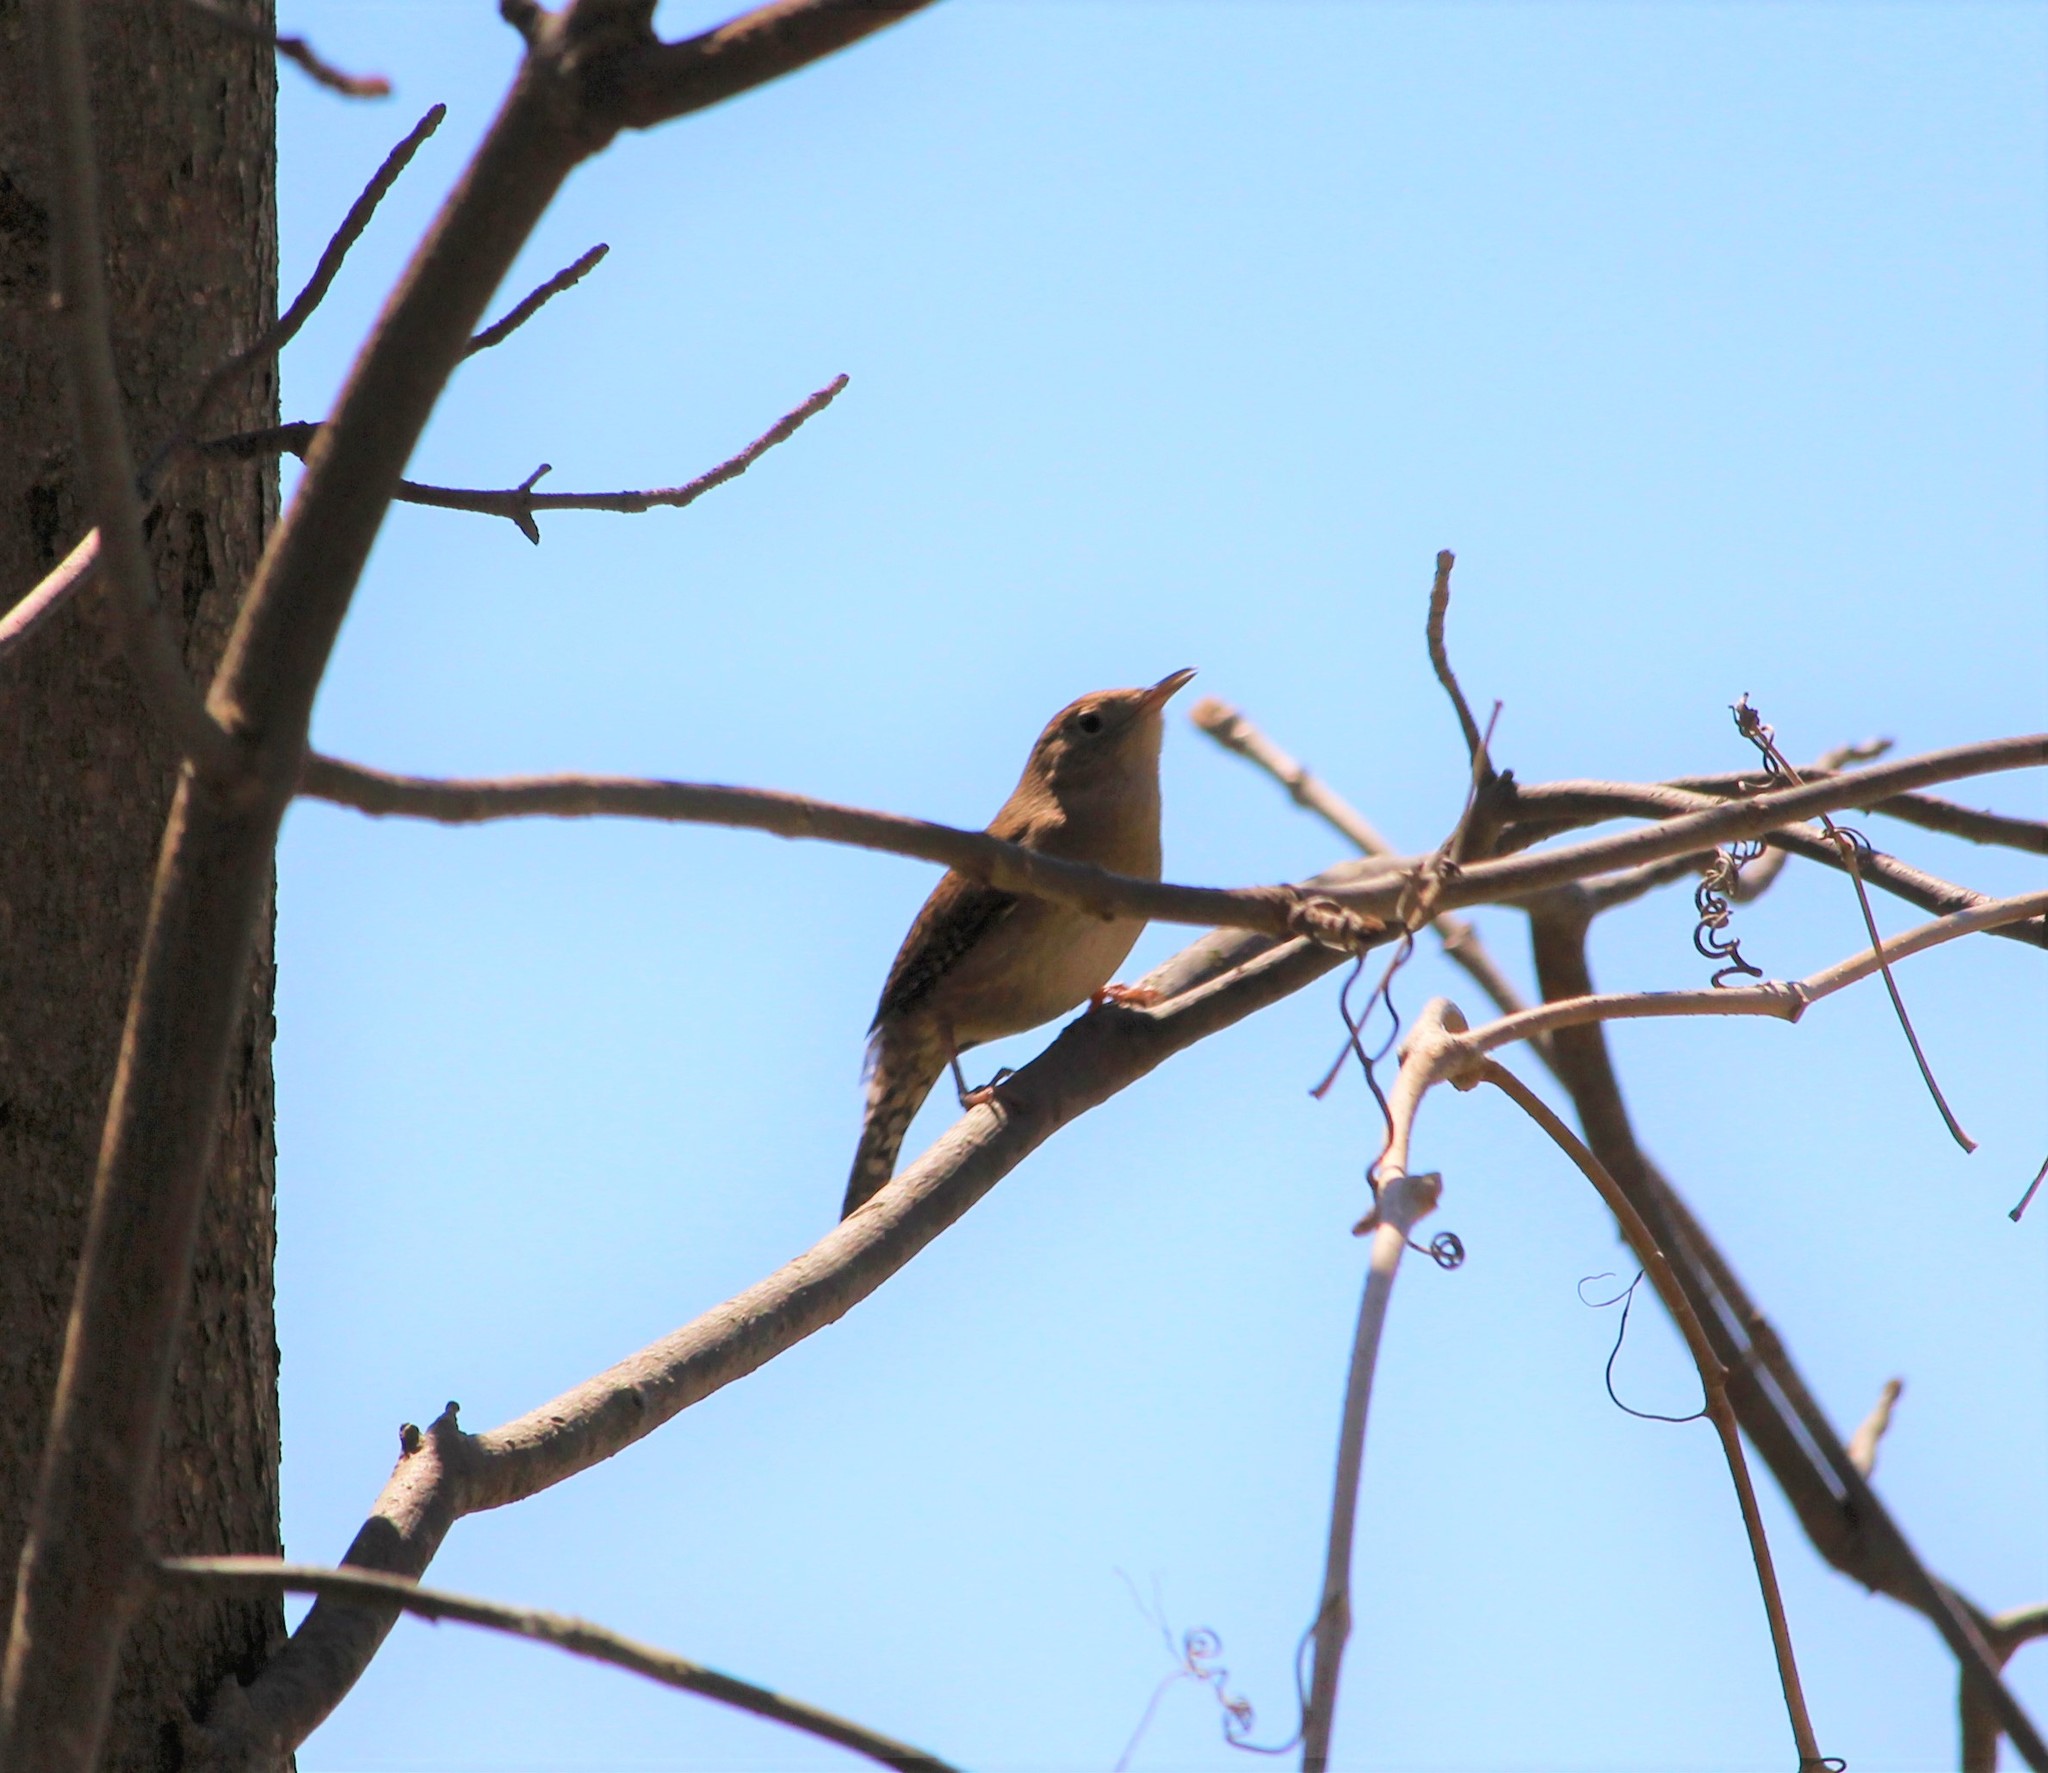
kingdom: Animalia
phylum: Chordata
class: Aves
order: Passeriformes
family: Troglodytidae
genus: Troglodytes
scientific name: Troglodytes aedon
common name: House wren
